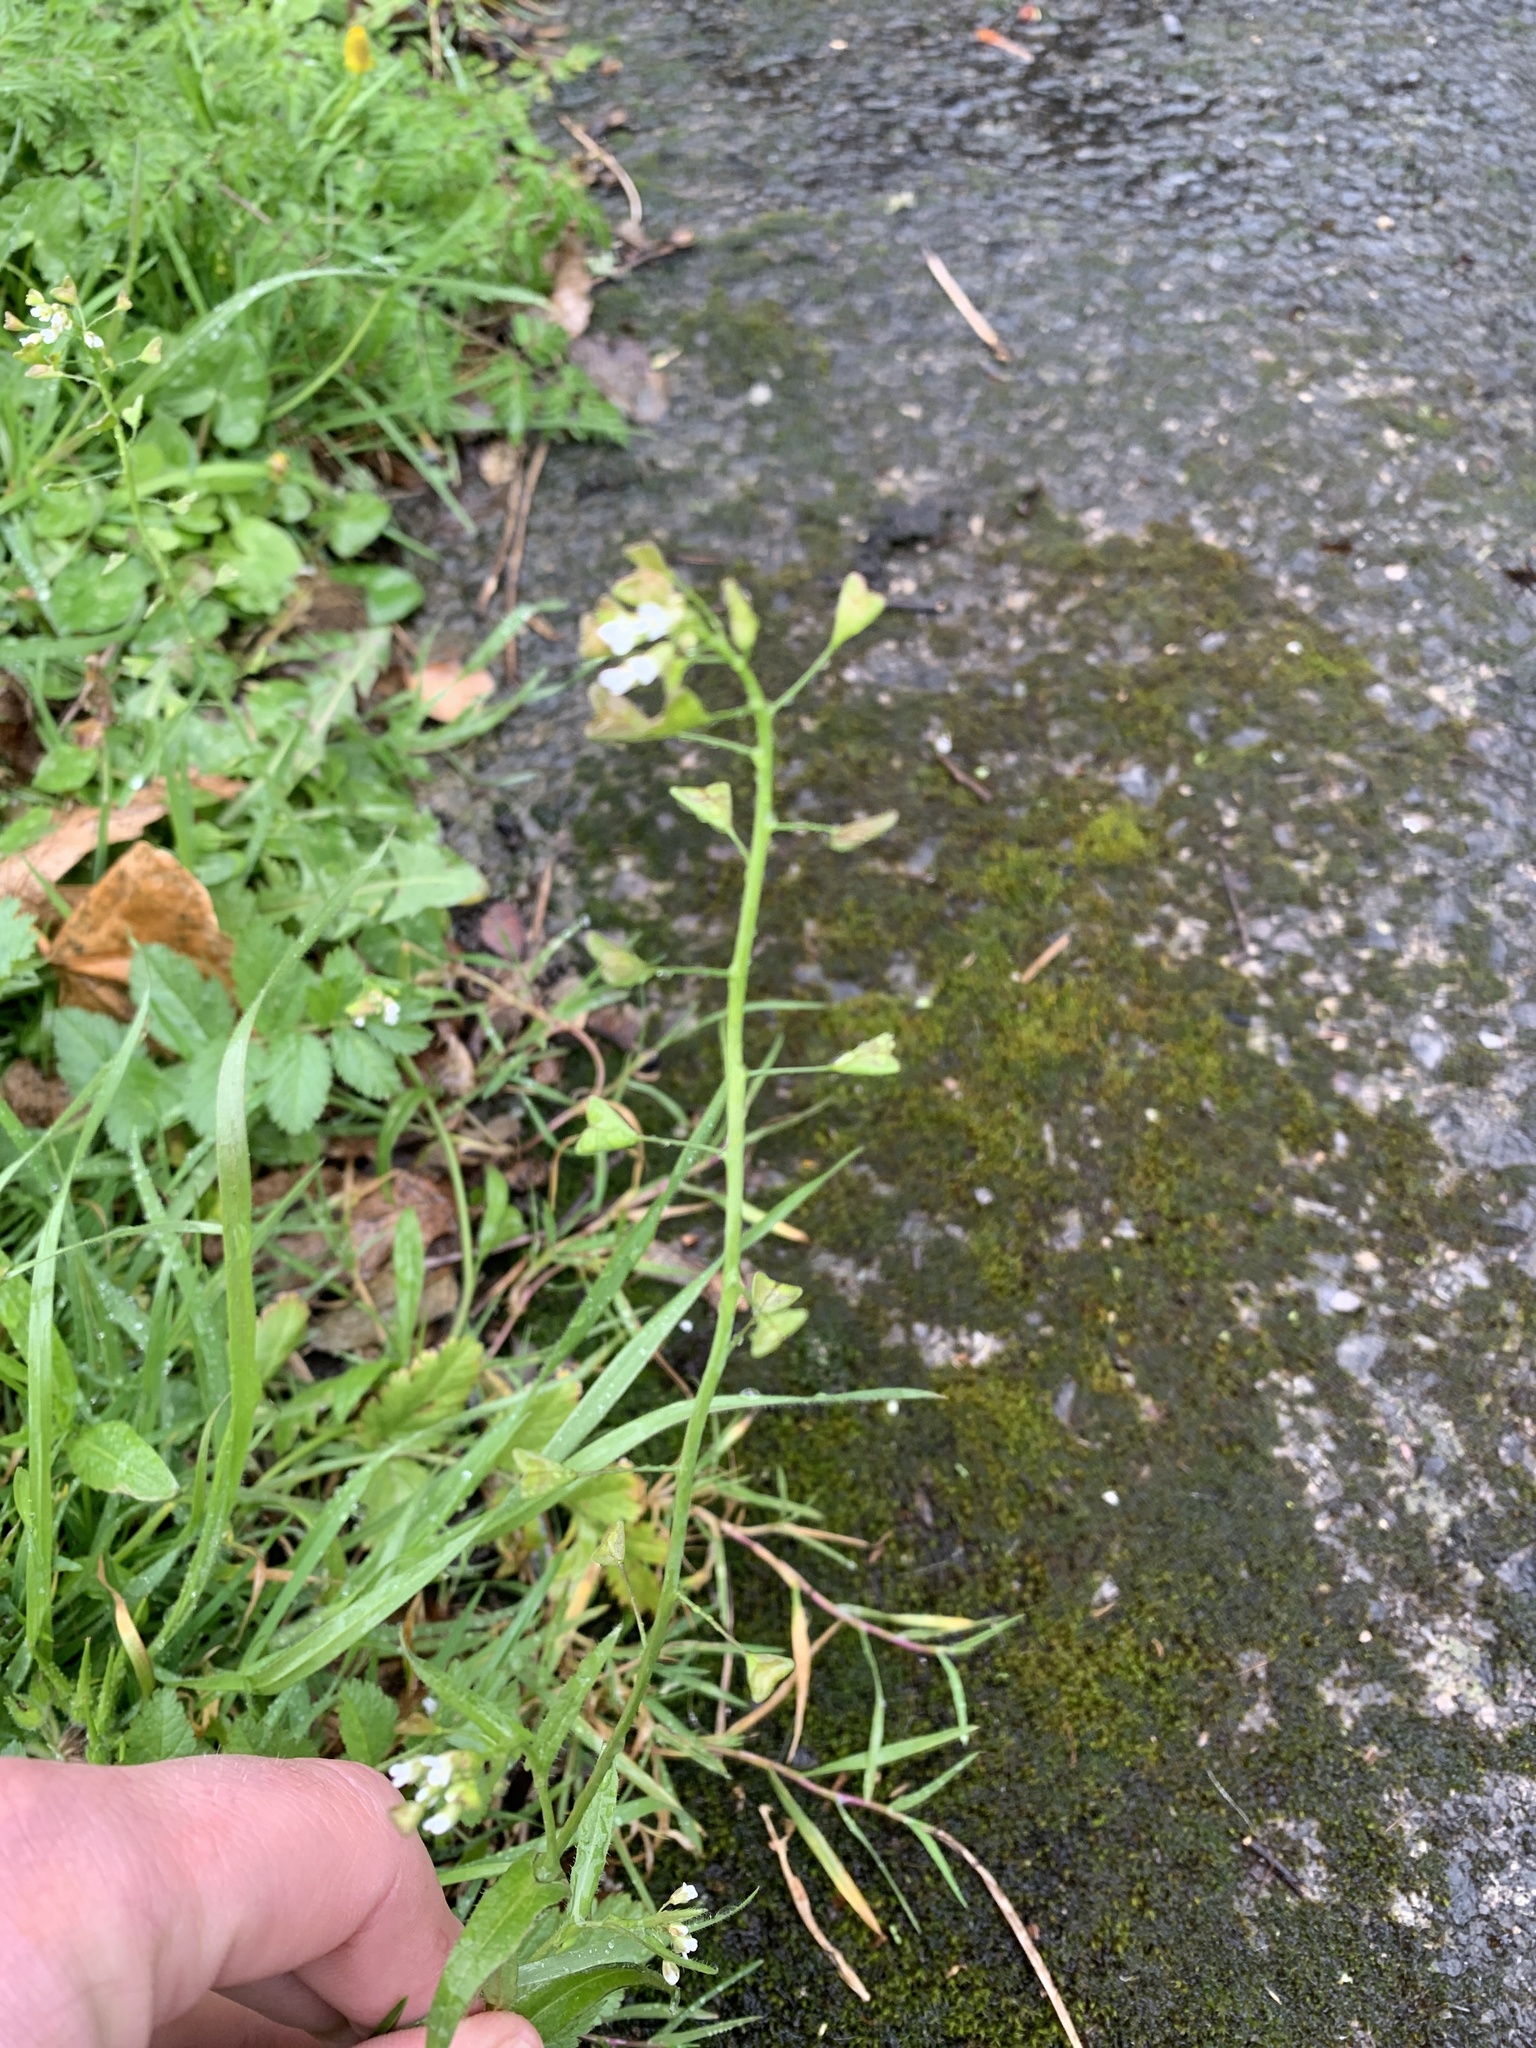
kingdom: Plantae
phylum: Tracheophyta
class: Magnoliopsida
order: Brassicales
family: Brassicaceae
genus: Capsella
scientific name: Capsella bursa-pastoris
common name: Shepherd's purse
